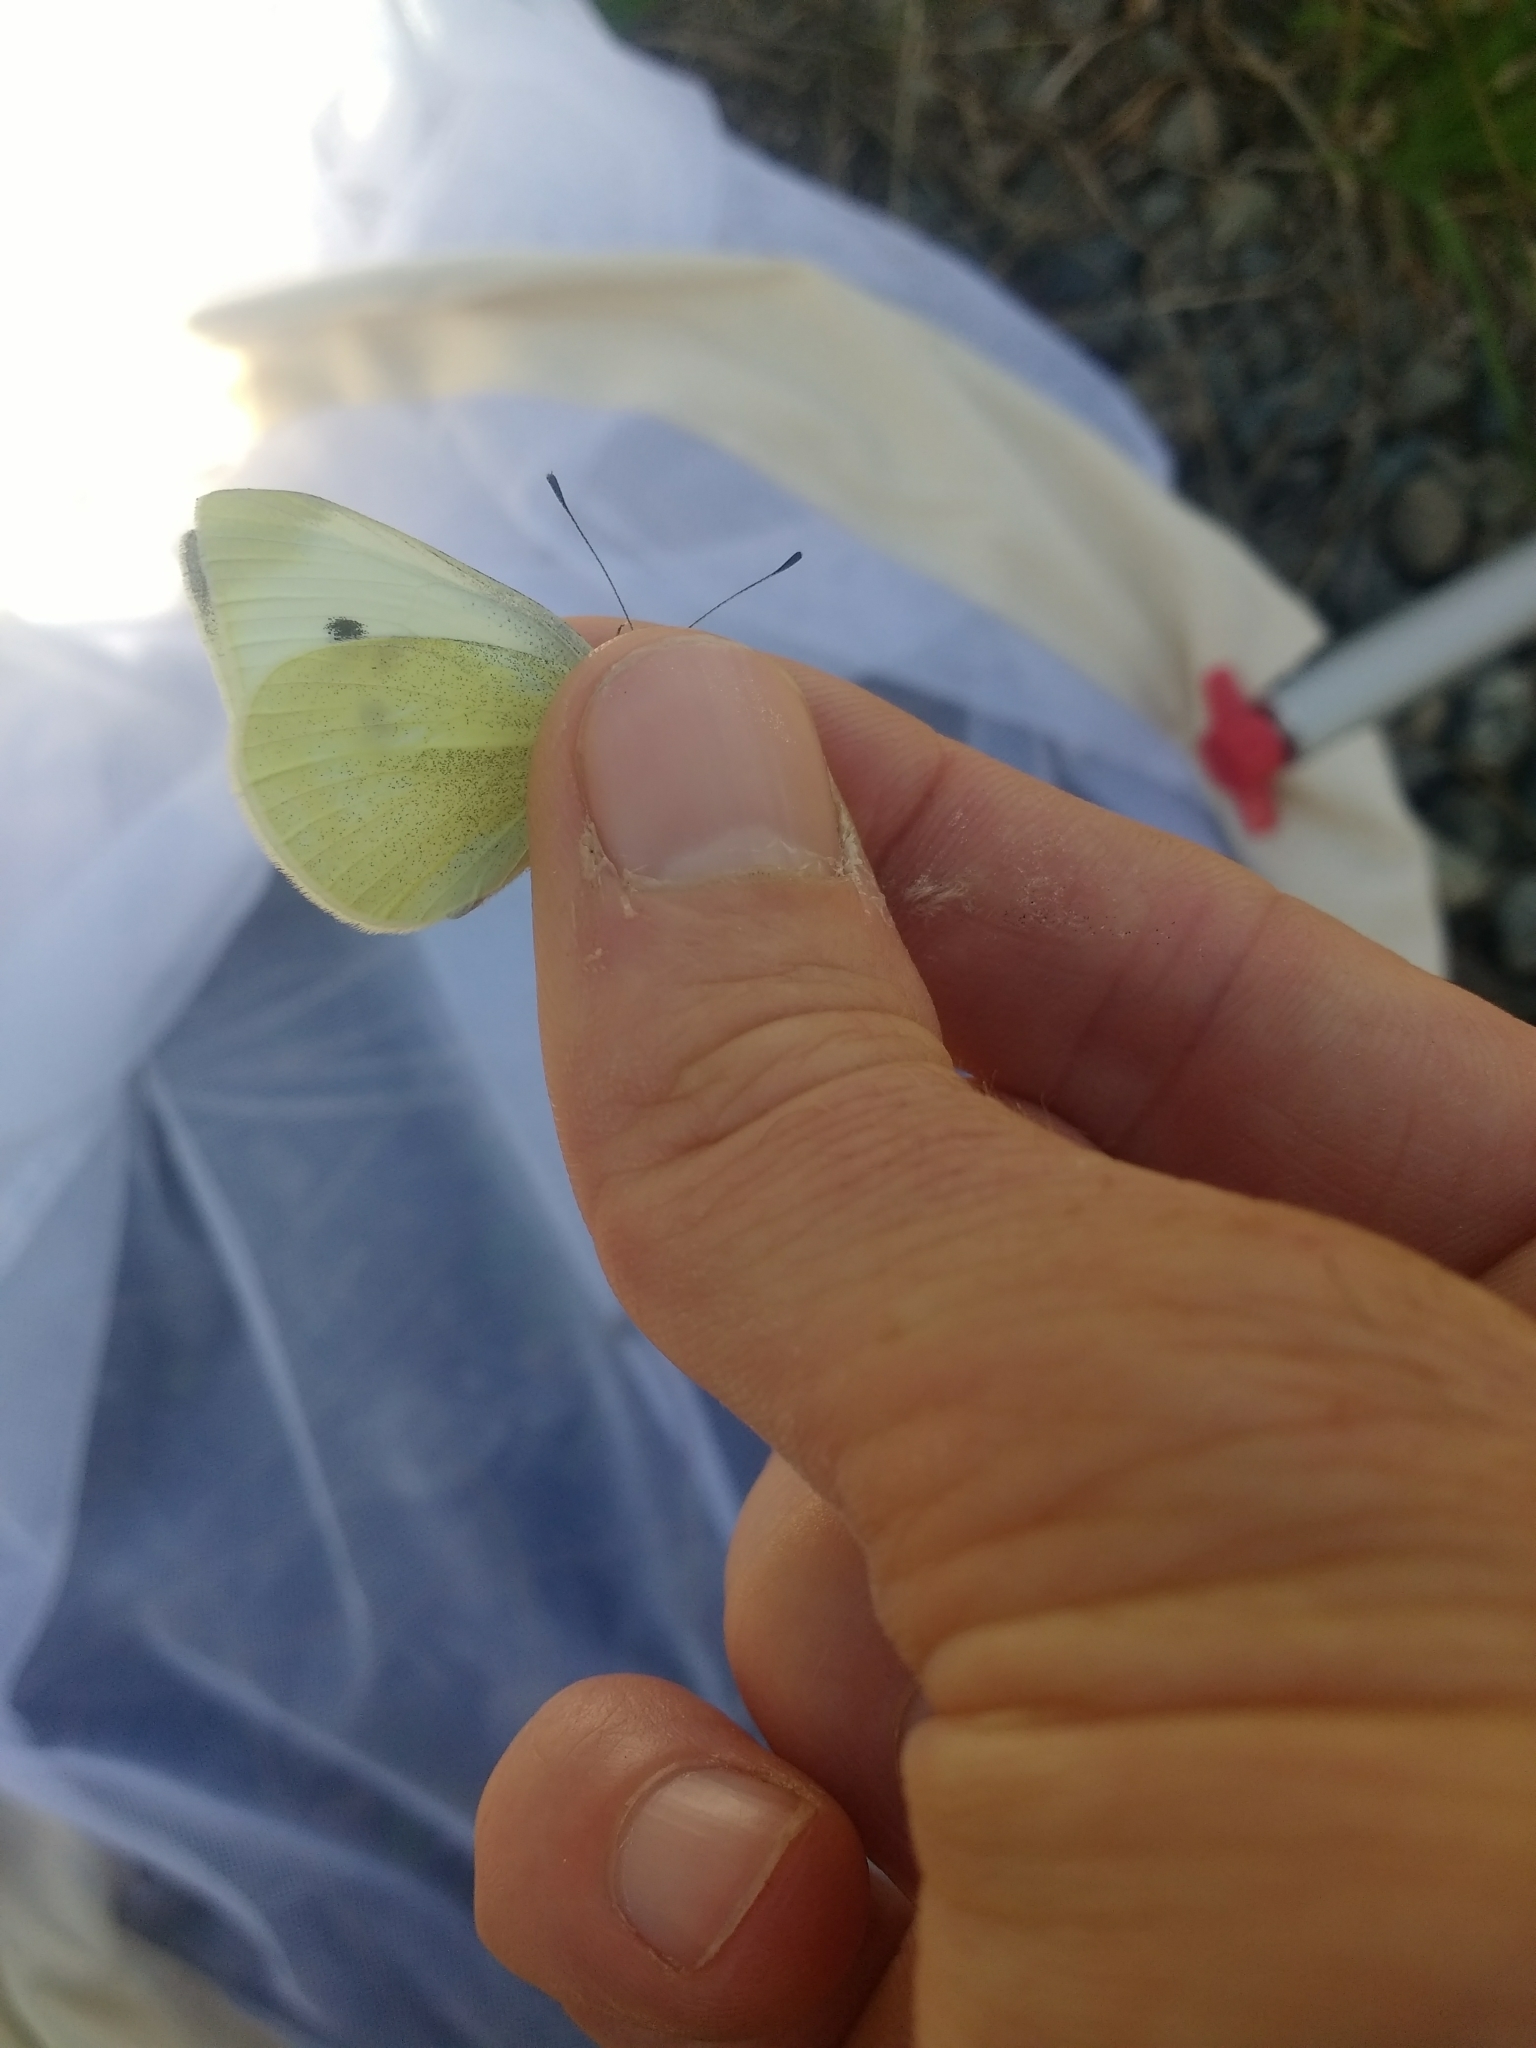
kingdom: Animalia
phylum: Arthropoda
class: Insecta
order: Lepidoptera
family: Pieridae
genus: Pieris
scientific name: Pieris rapae
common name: Small white
